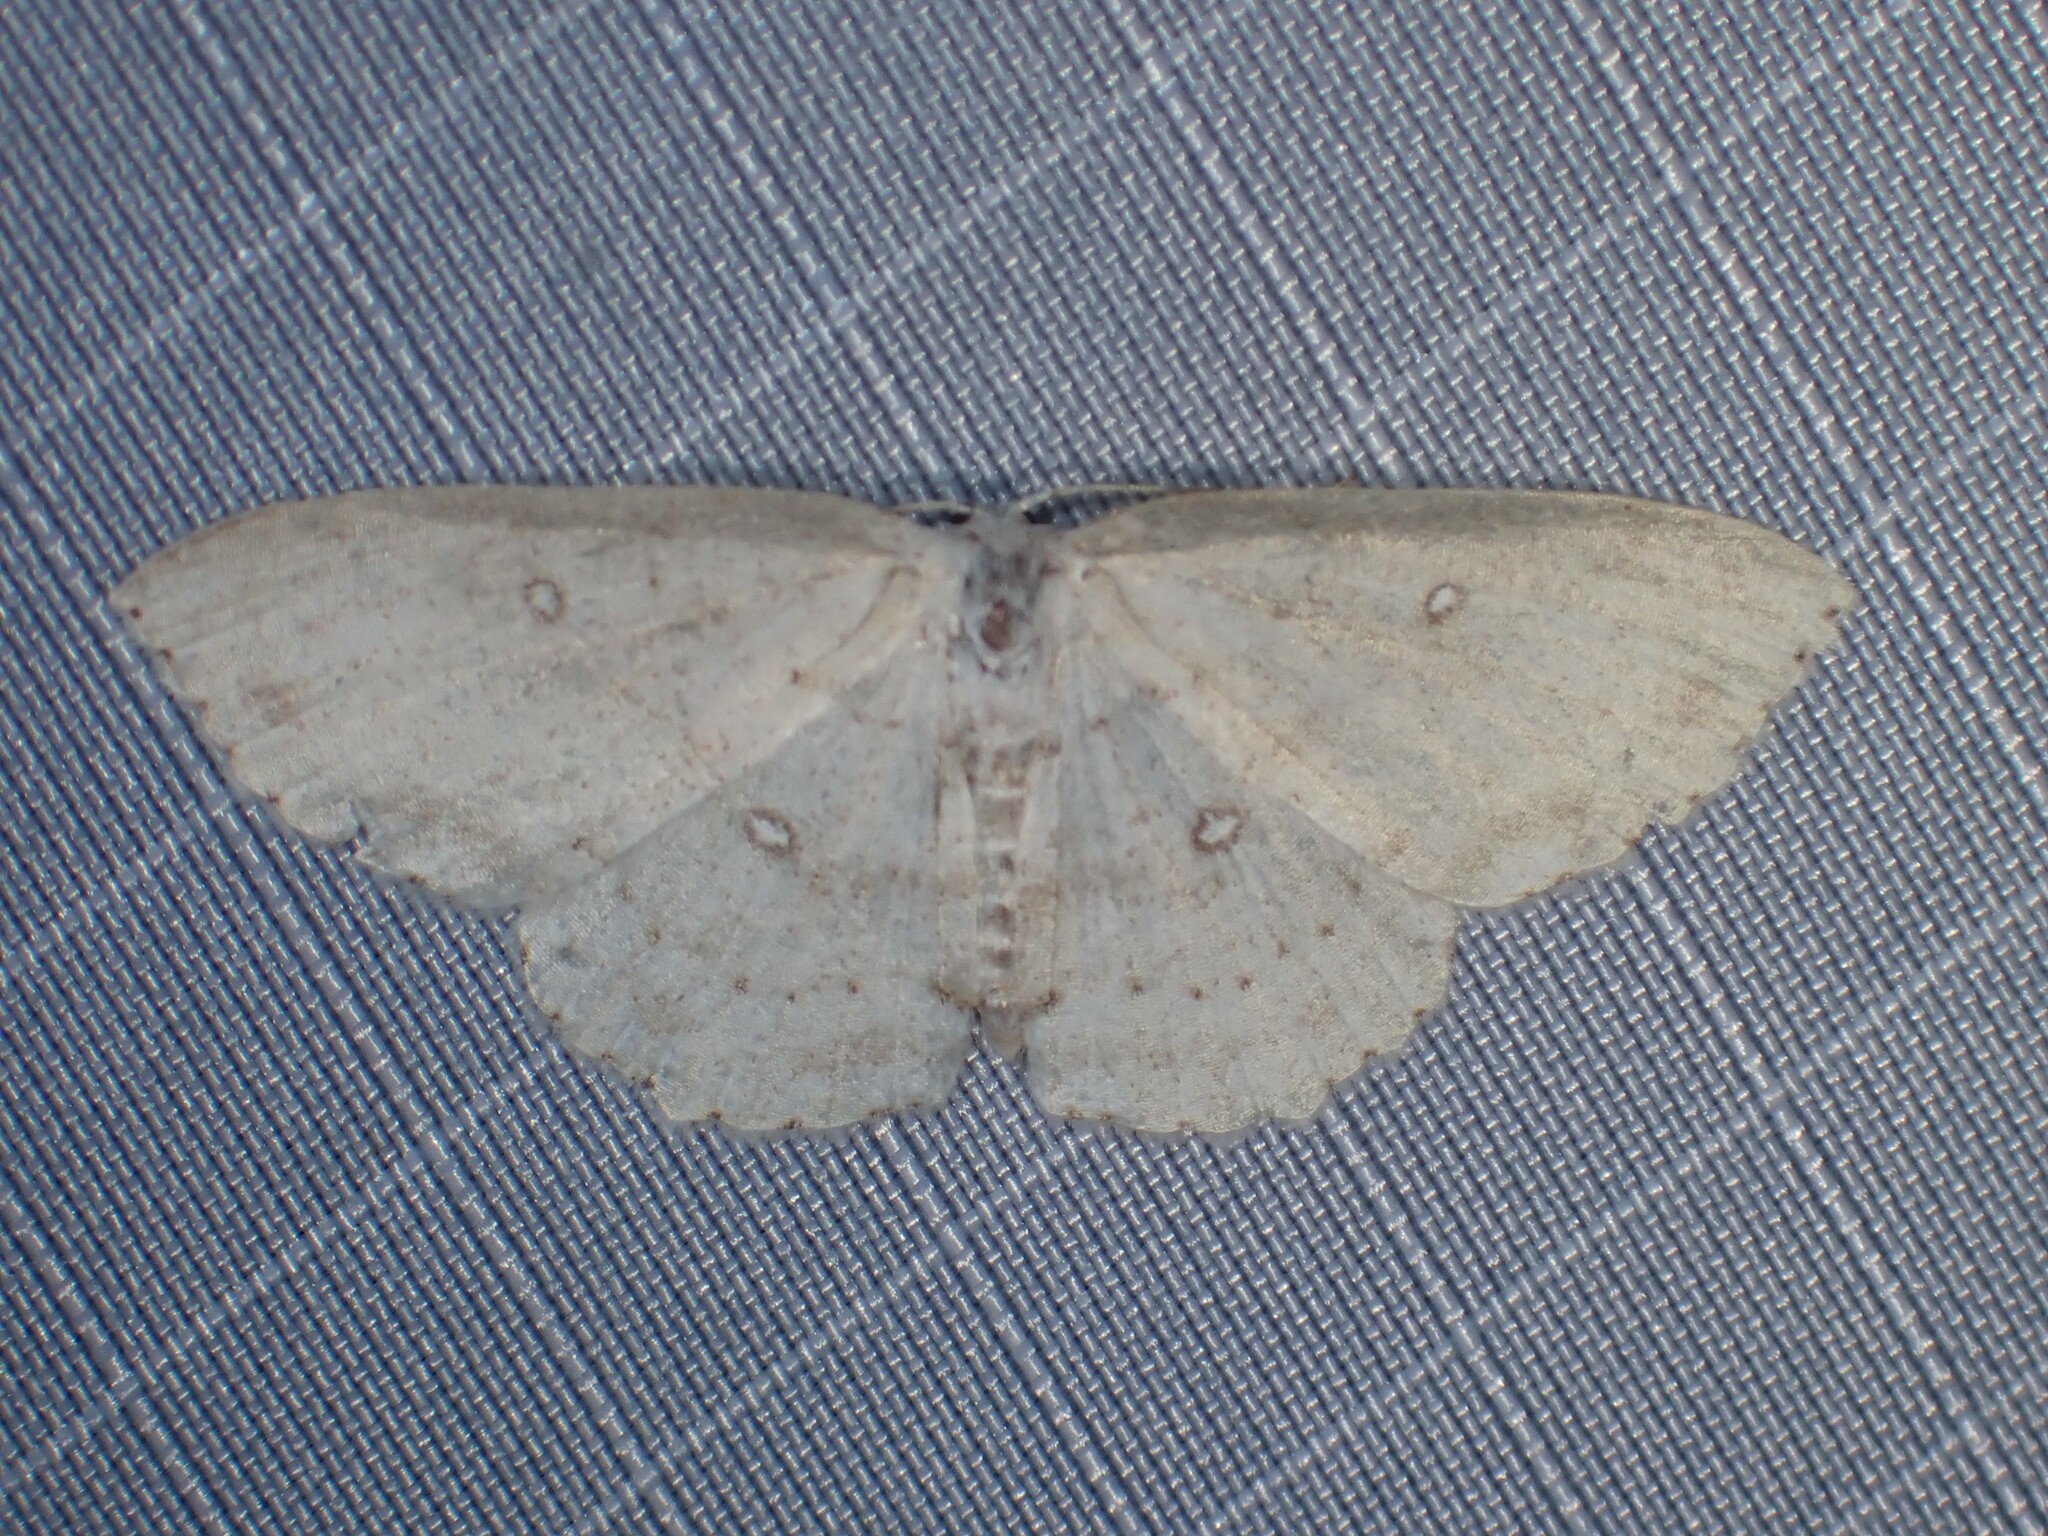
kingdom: Animalia
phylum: Arthropoda
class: Insecta
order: Lepidoptera
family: Geometridae
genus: Cyclophora
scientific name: Cyclophora pendulinaria
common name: Sweet fern geometer
